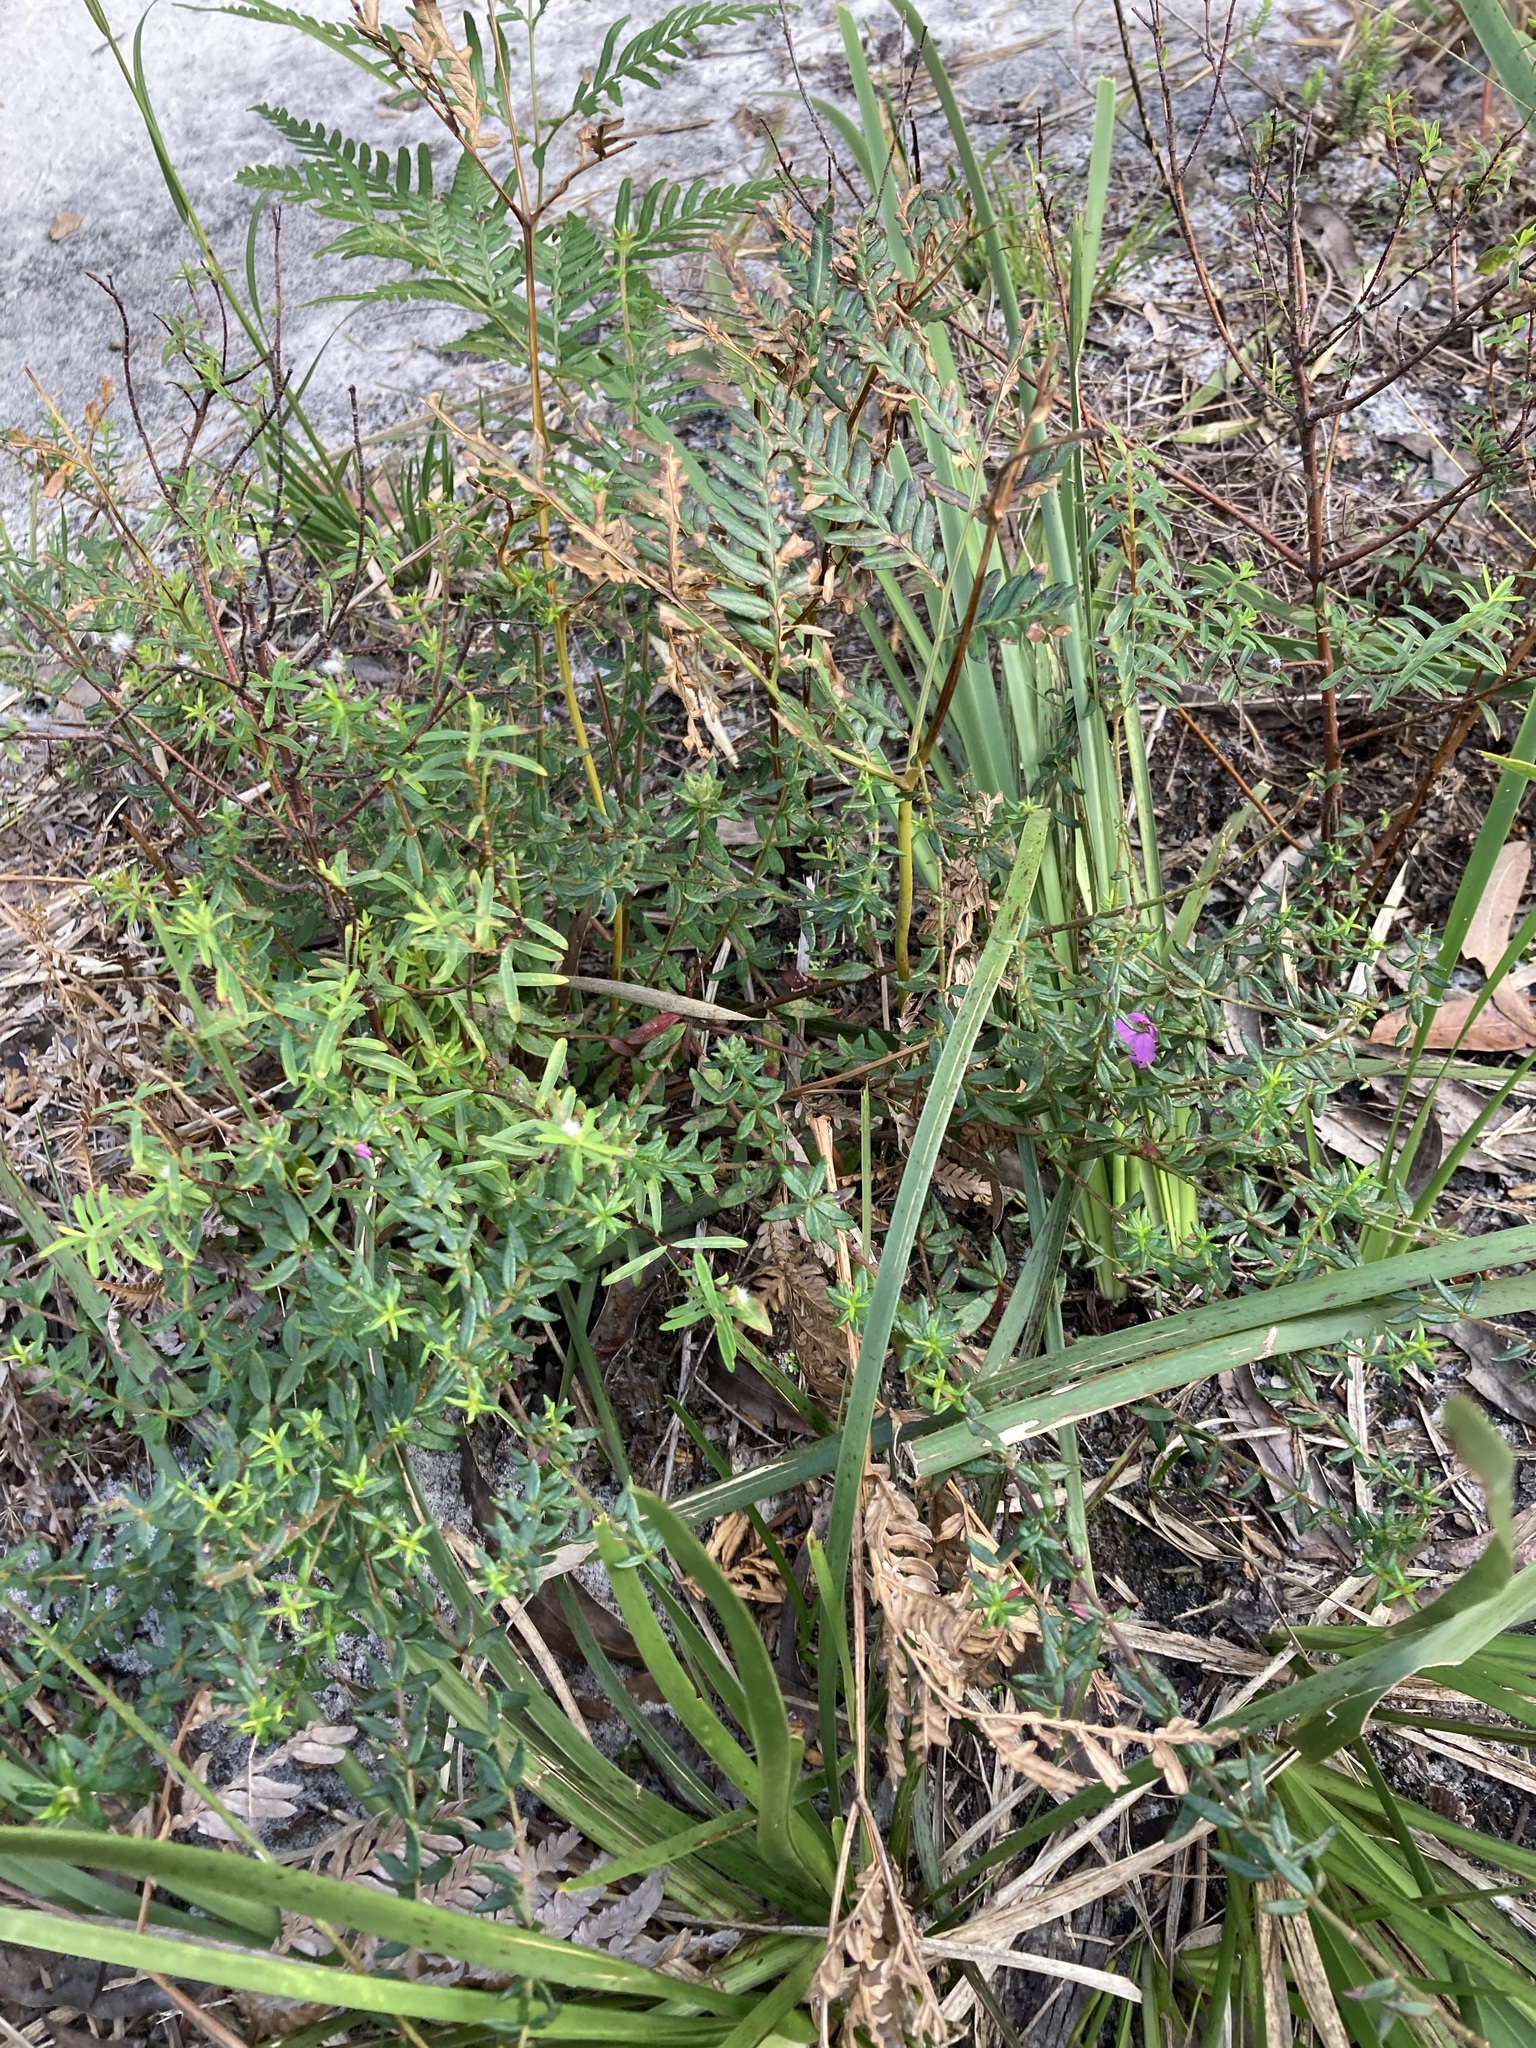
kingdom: Plantae
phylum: Tracheophyta
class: Magnoliopsida
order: Oxalidales
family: Elaeocarpaceae
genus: Tetratheca
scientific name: Tetratheca thymifolia
